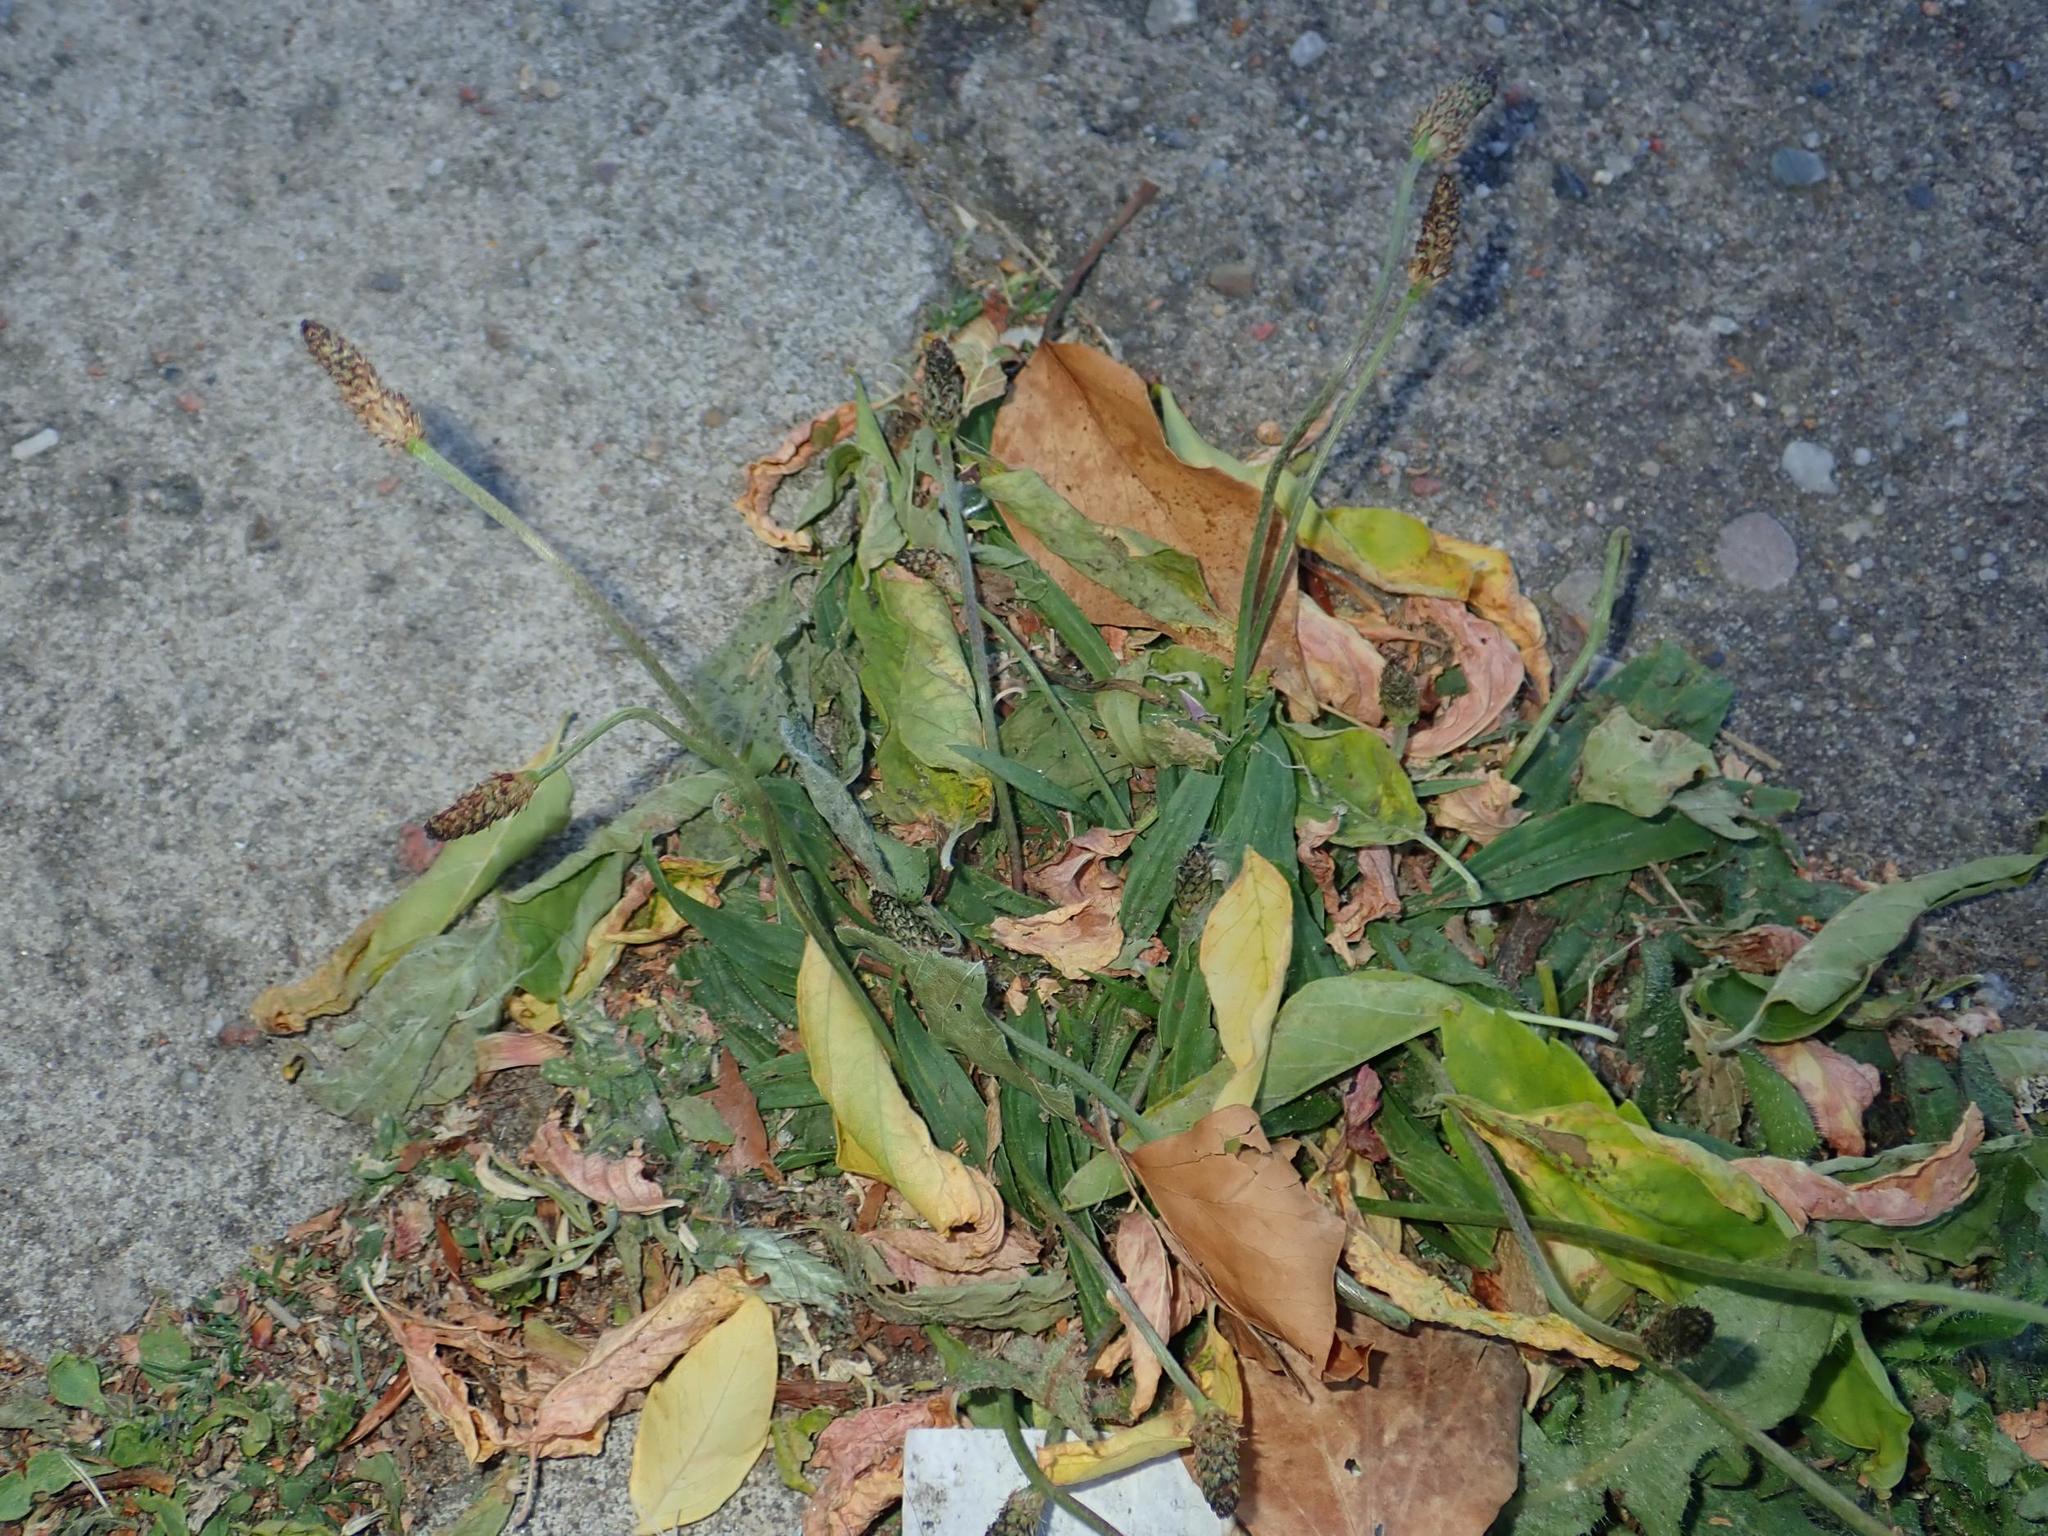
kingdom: Plantae
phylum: Tracheophyta
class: Magnoliopsida
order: Lamiales
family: Plantaginaceae
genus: Plantago
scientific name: Plantago lanceolata
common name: Ribwort plantain
